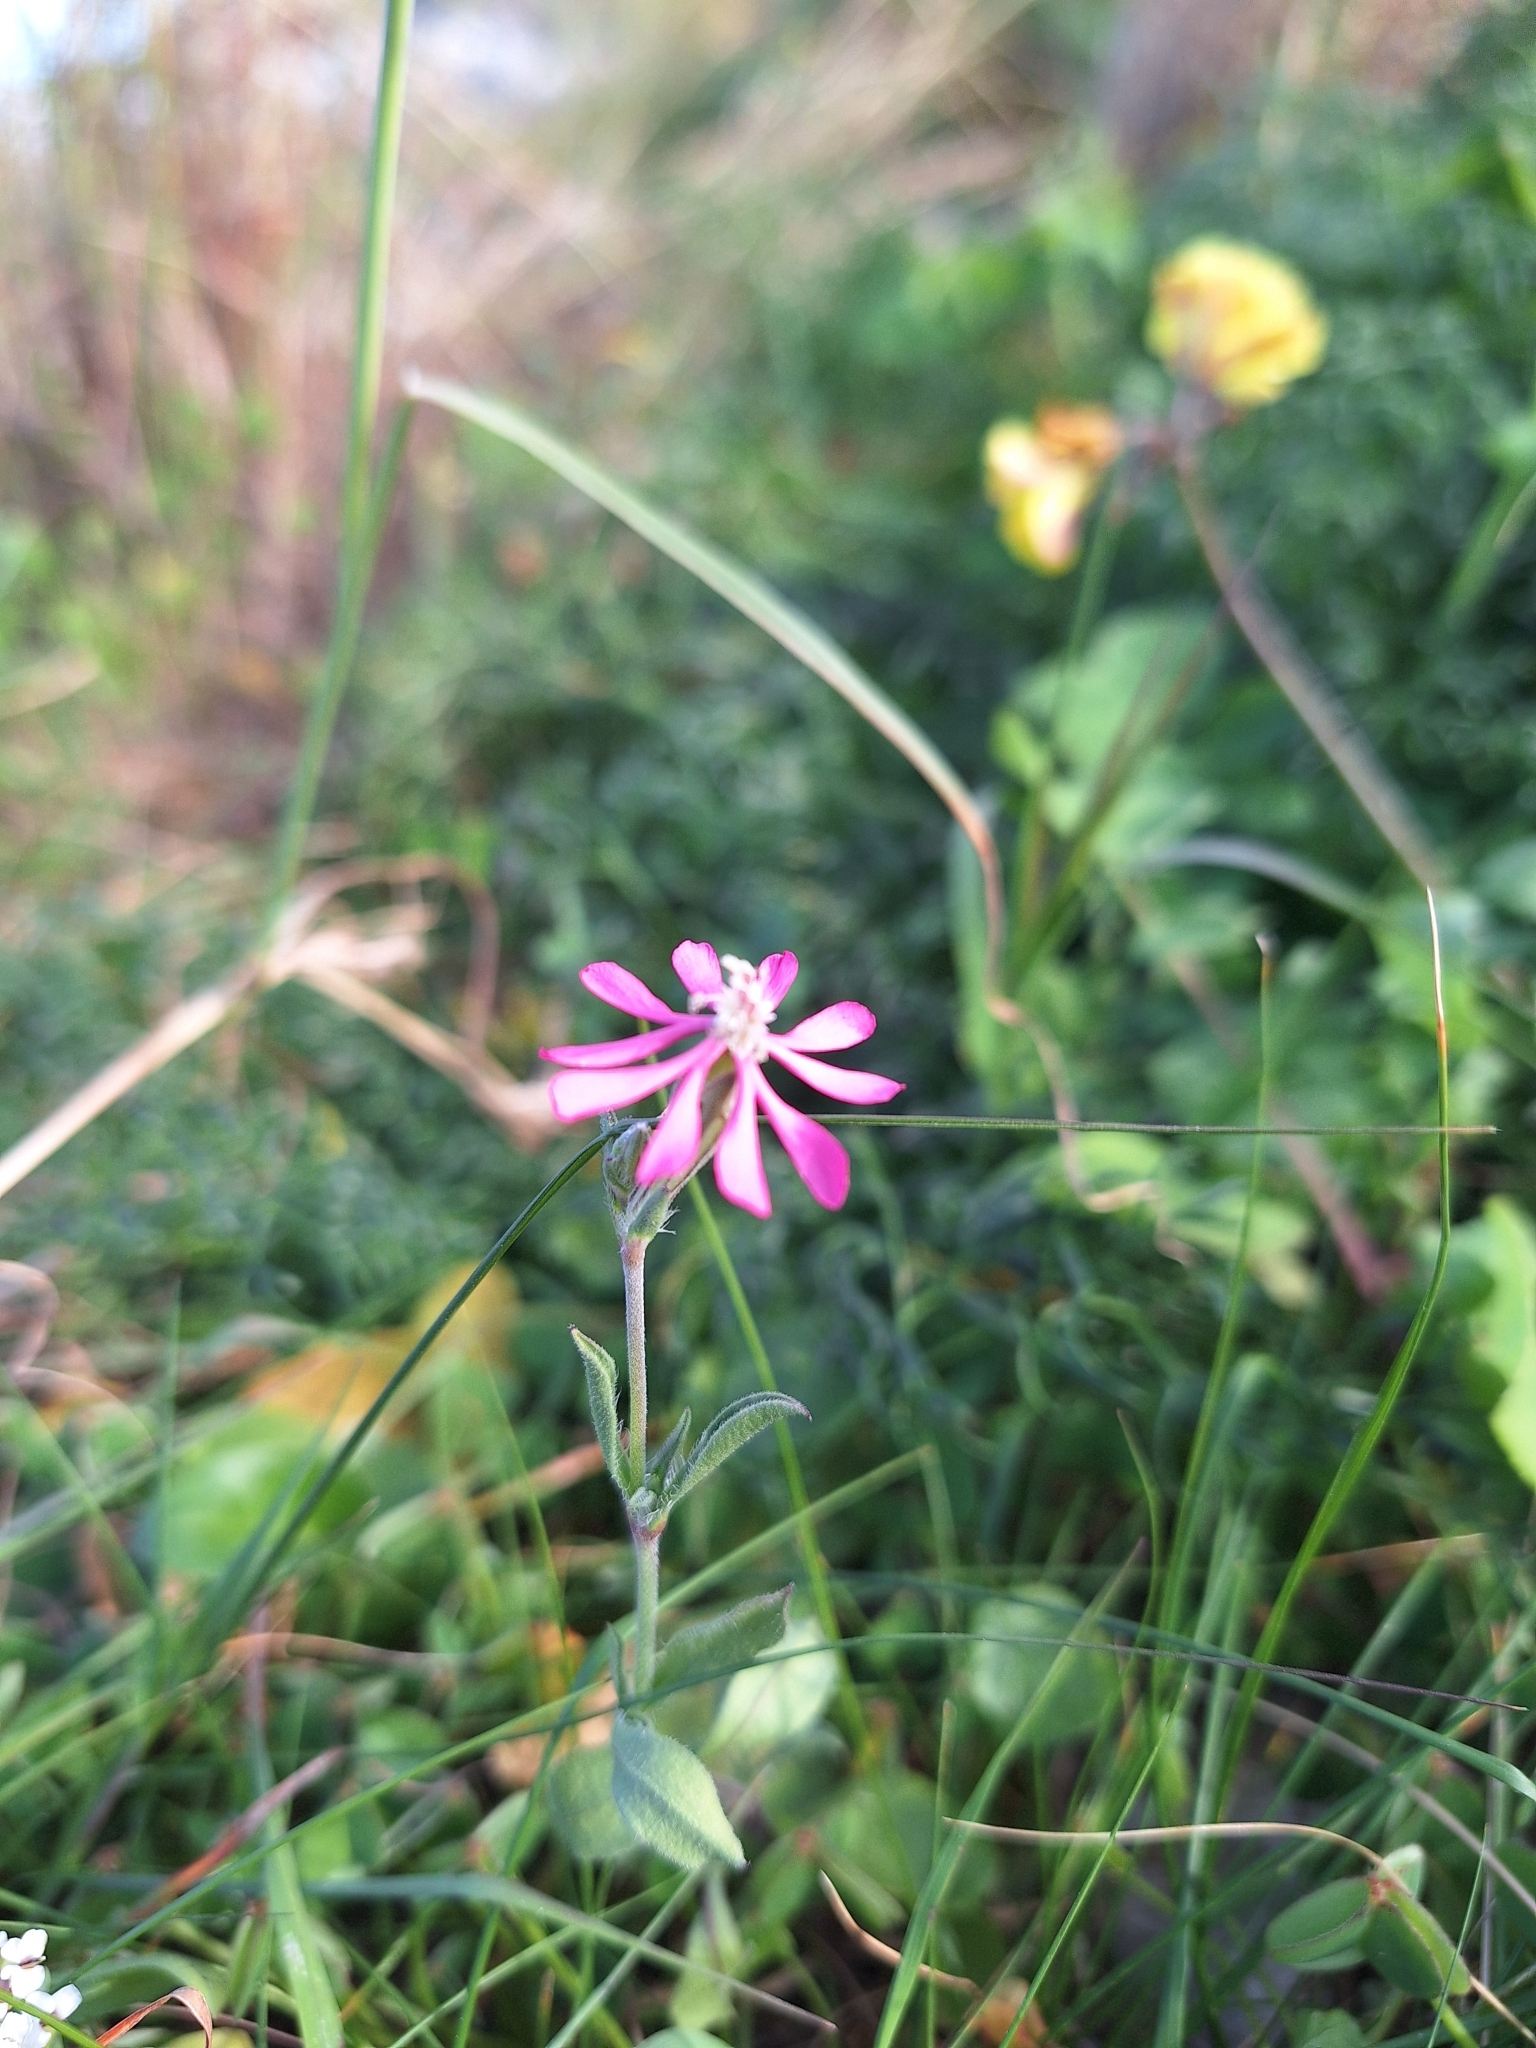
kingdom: Plantae
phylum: Tracheophyta
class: Magnoliopsida
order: Caryophyllales
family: Caryophyllaceae
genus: Silene
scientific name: Silene colorata
